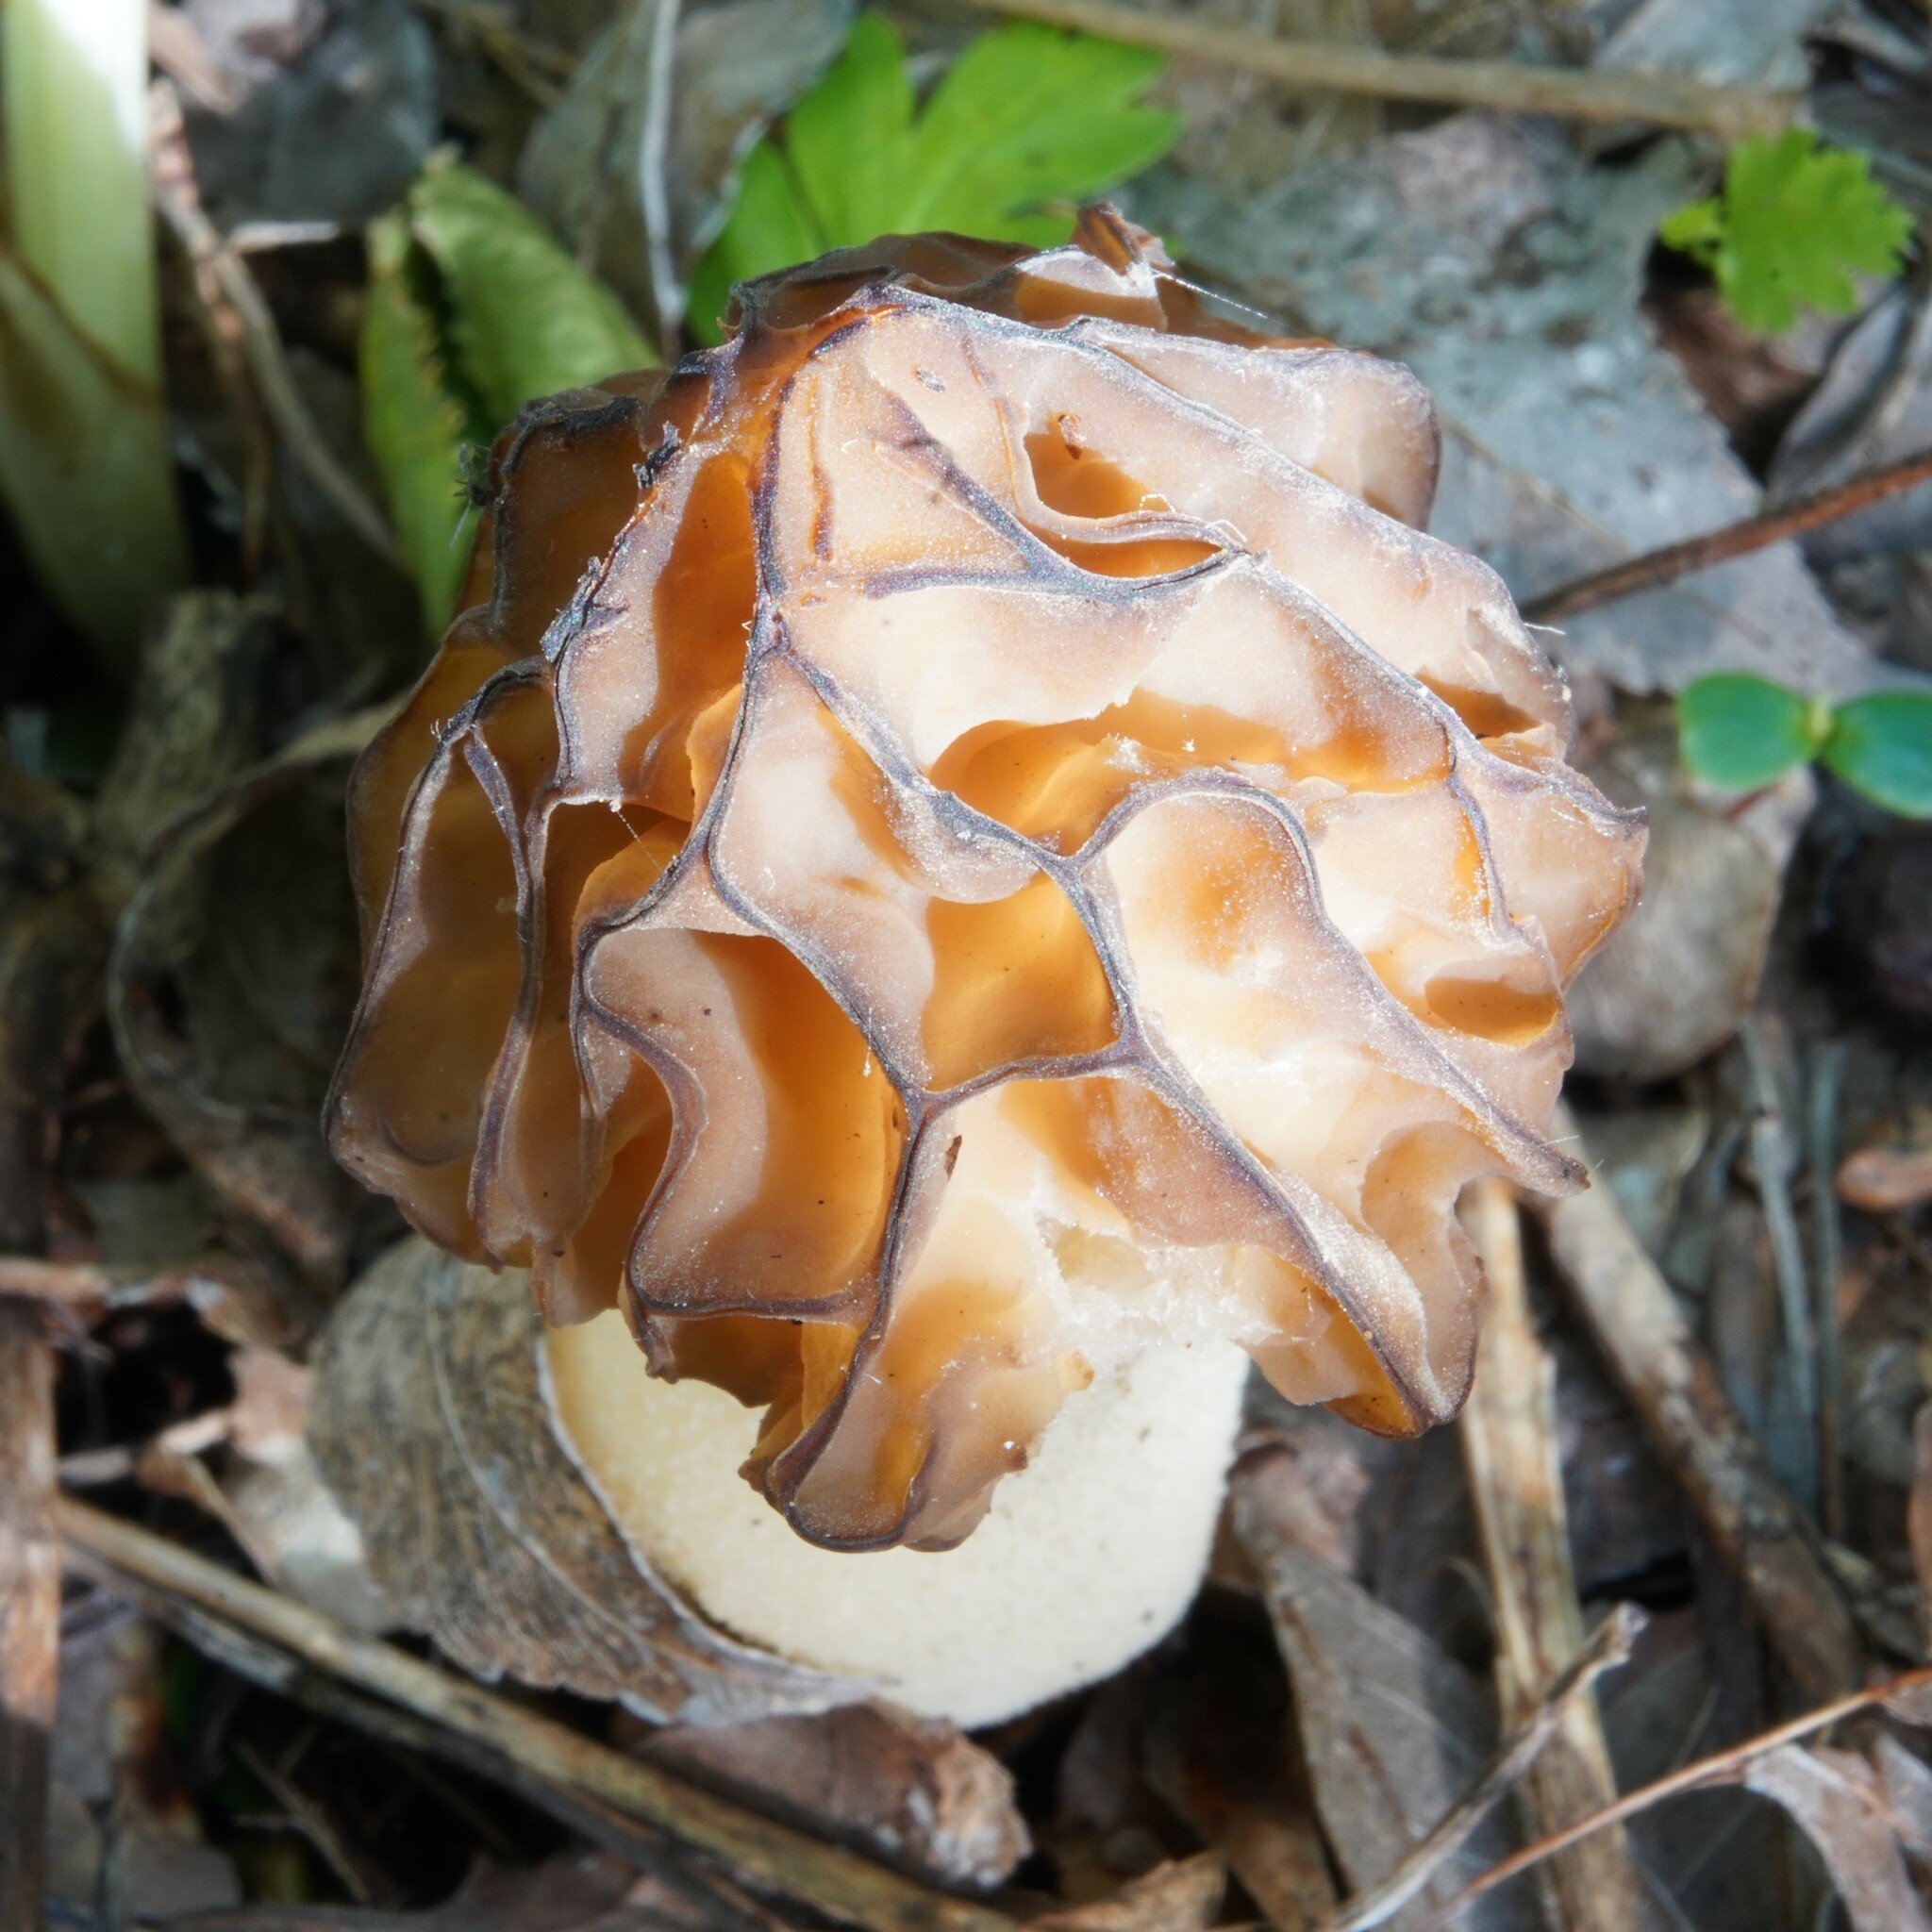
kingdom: Fungi
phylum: Ascomycota
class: Pezizomycetes
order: Pezizales
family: Morchellaceae
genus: Morchella
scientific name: Morchella semilibera
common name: Semifree morel
